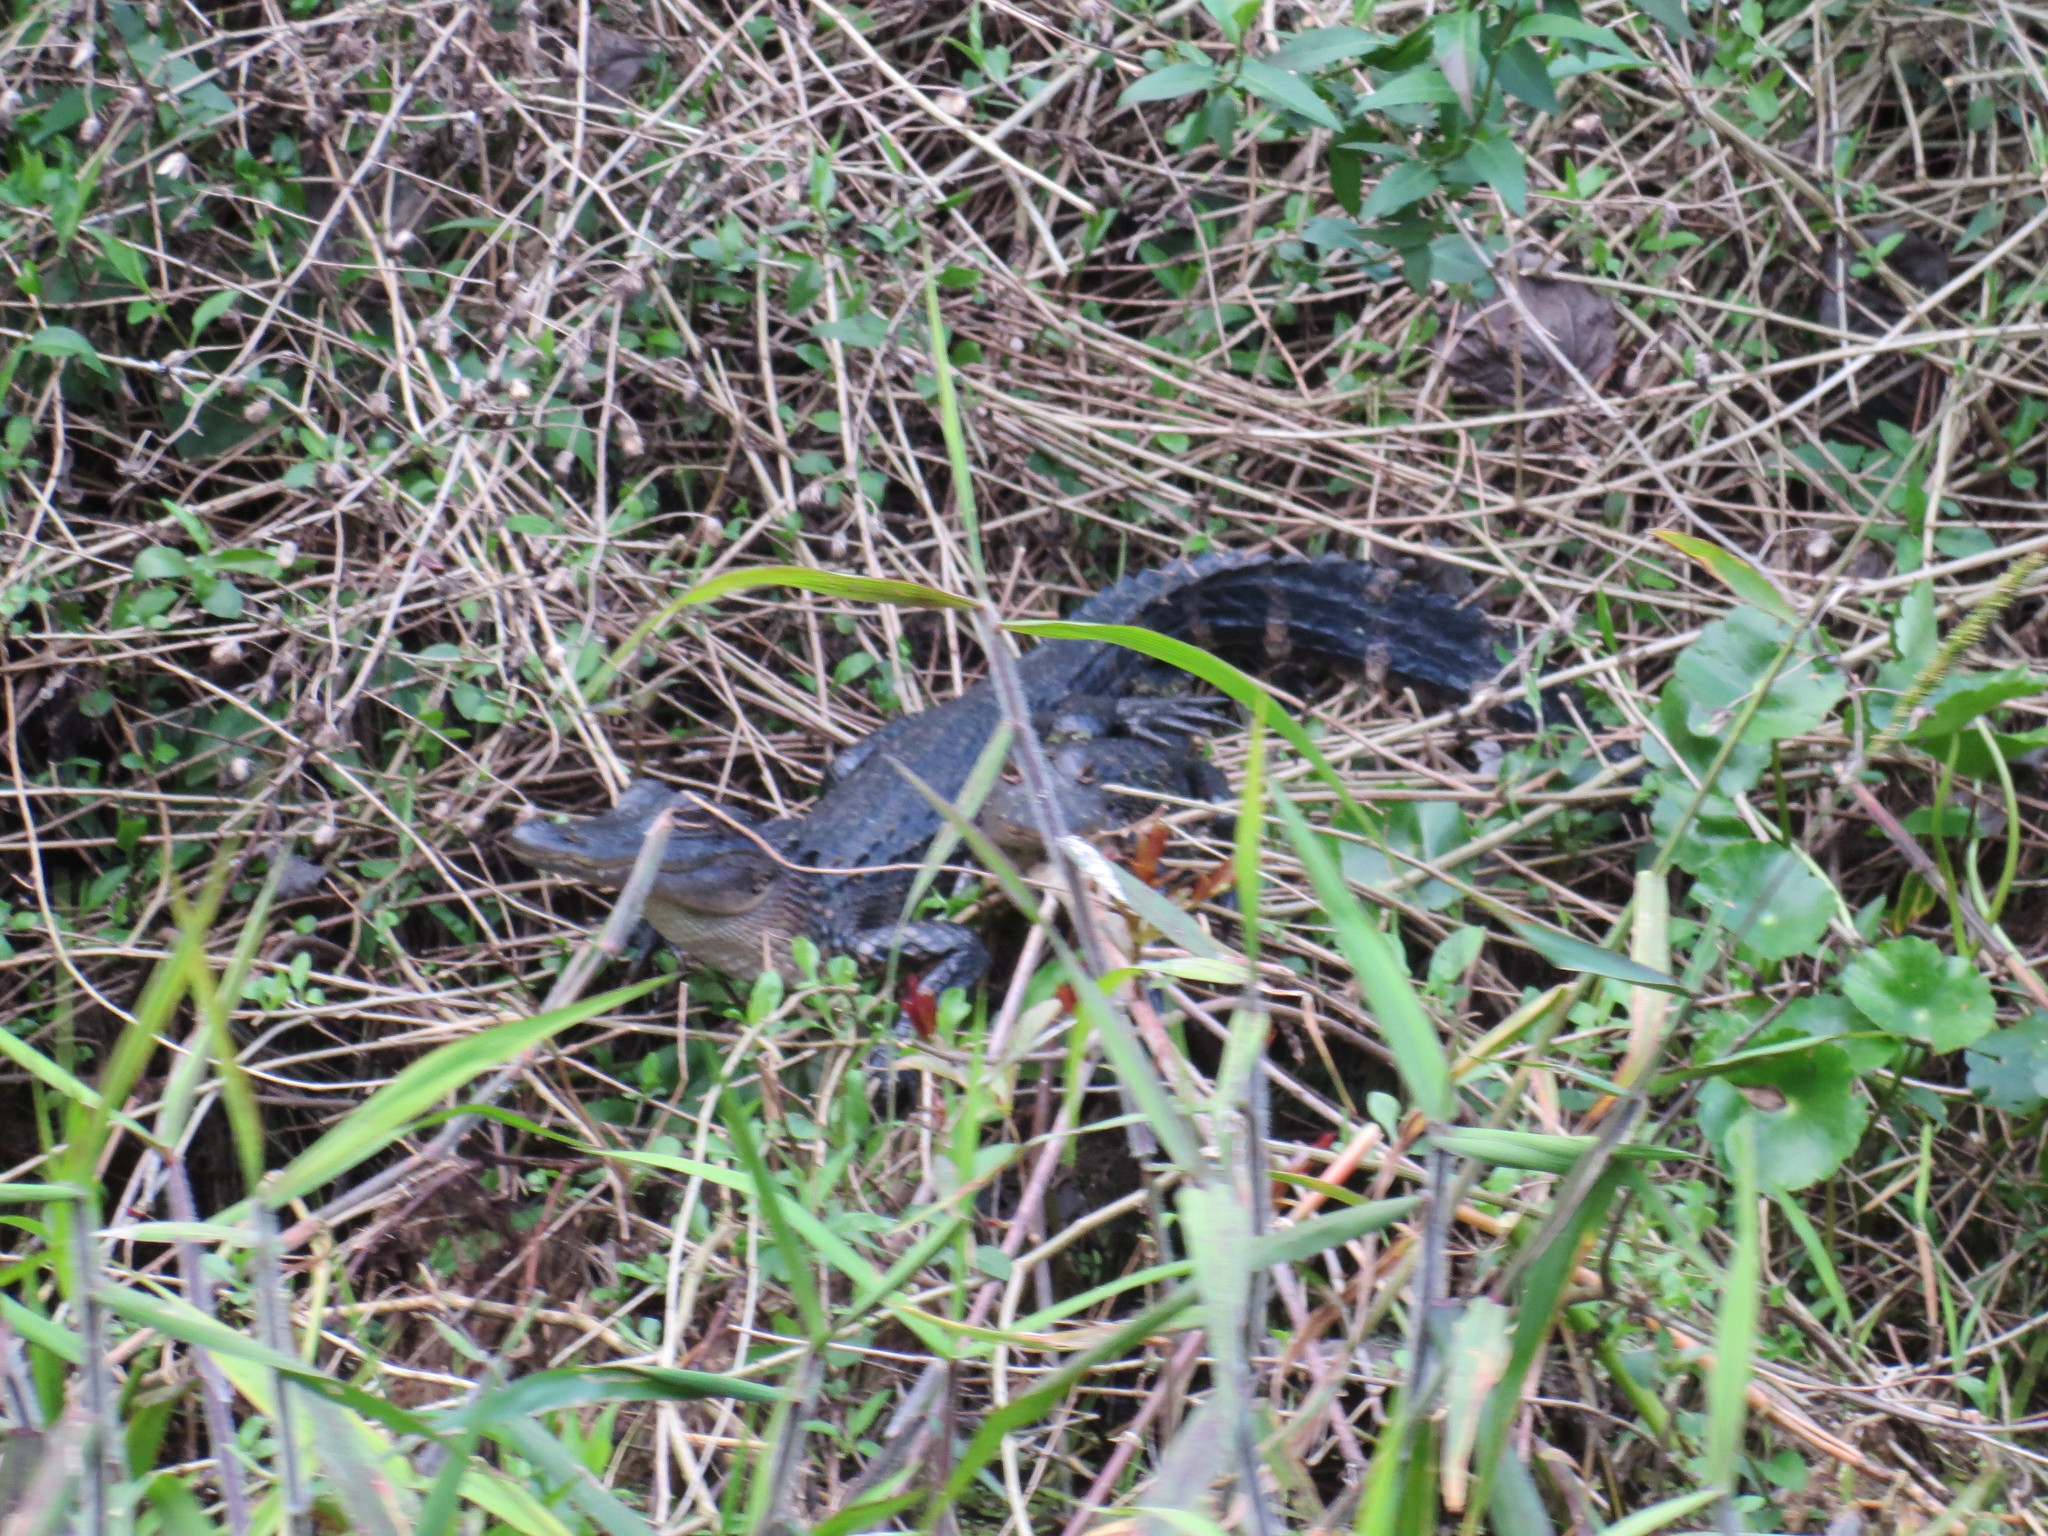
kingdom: Animalia
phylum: Chordata
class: Crocodylia
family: Alligatoridae
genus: Alligator
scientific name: Alligator mississippiensis
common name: American alligator
